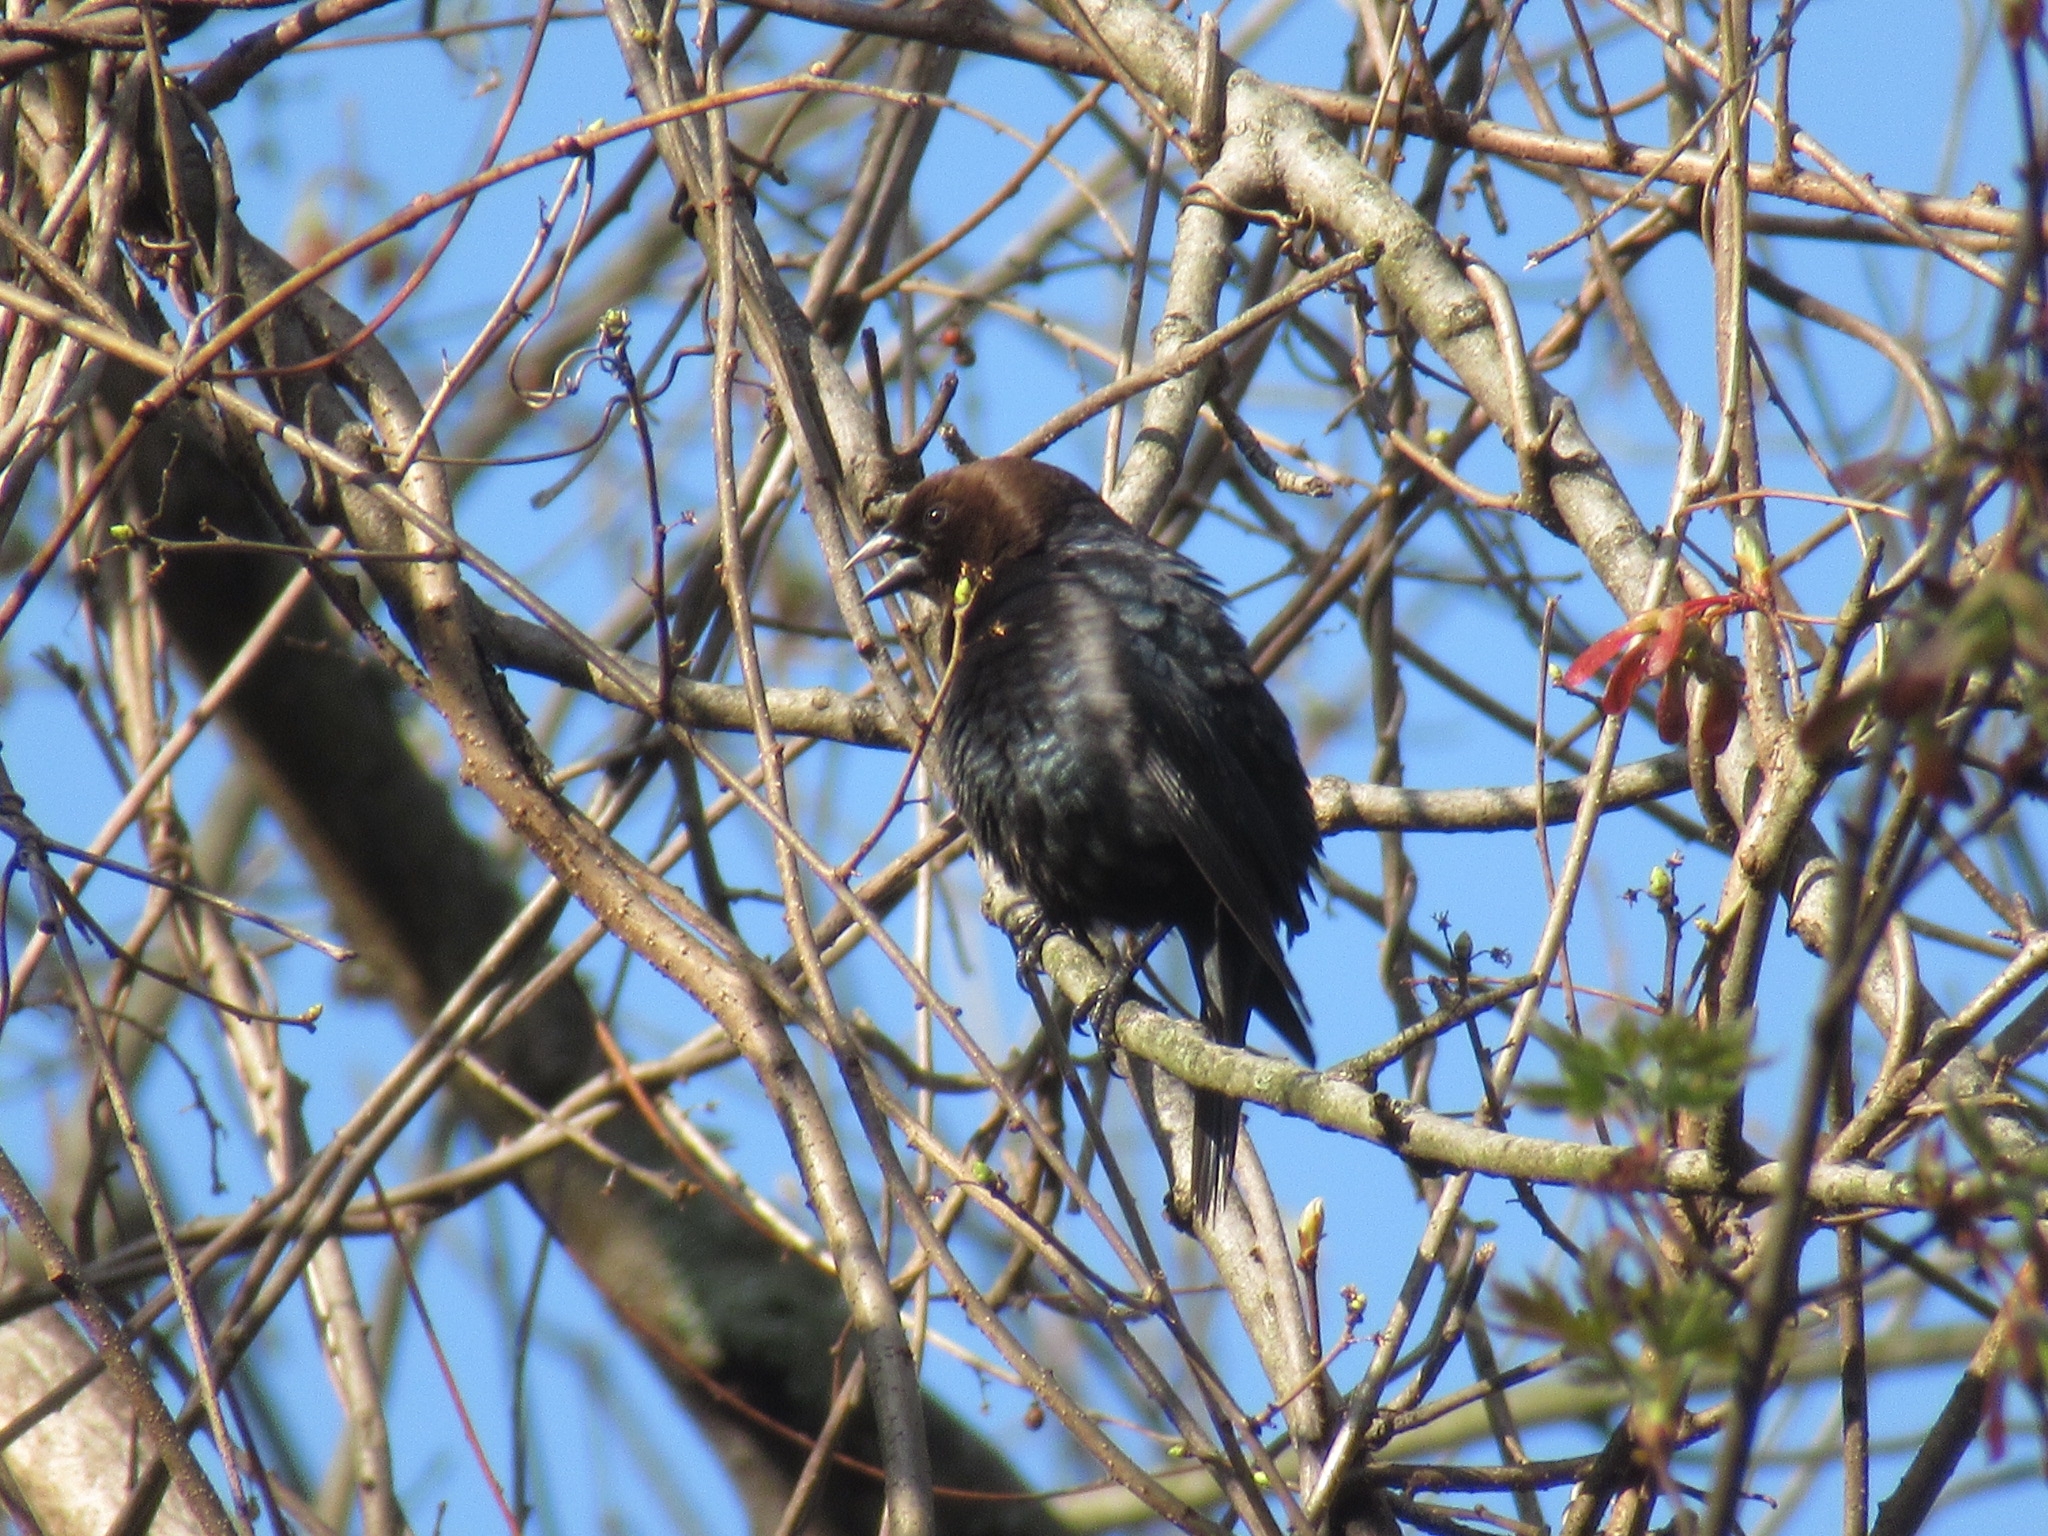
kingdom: Animalia
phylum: Chordata
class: Aves
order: Passeriformes
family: Icteridae
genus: Molothrus
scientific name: Molothrus ater
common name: Brown-headed cowbird
